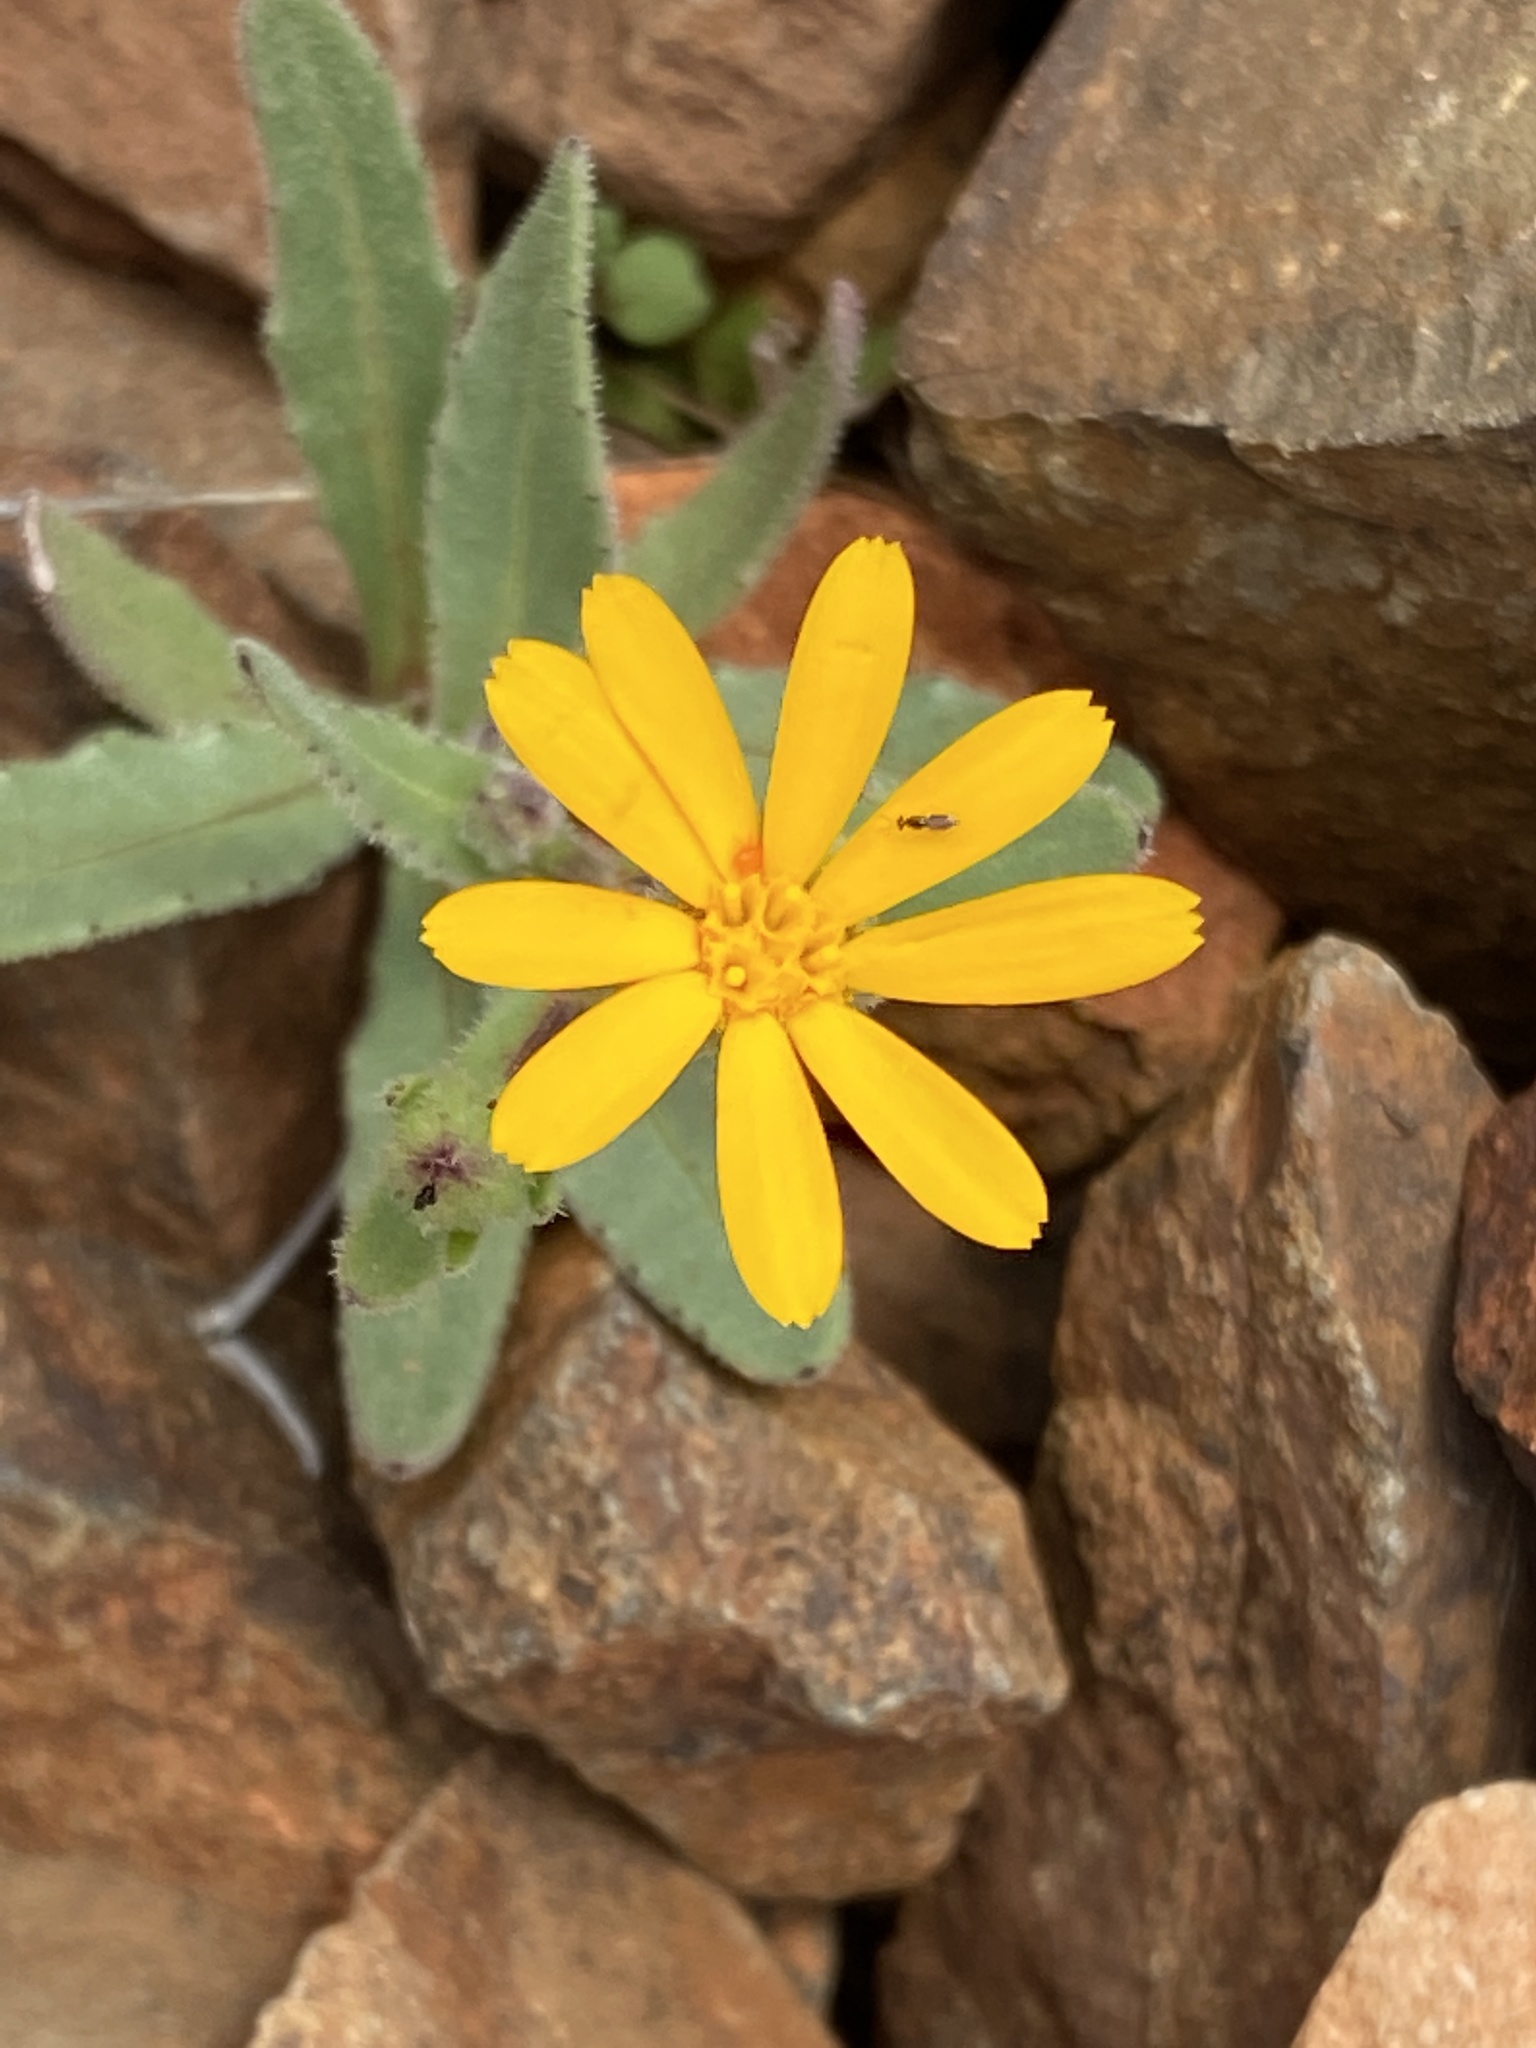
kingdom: Plantae
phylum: Tracheophyta
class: Magnoliopsida
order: Asterales
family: Asteraceae
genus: Calendula
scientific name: Calendula arvensis
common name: Field marigold
